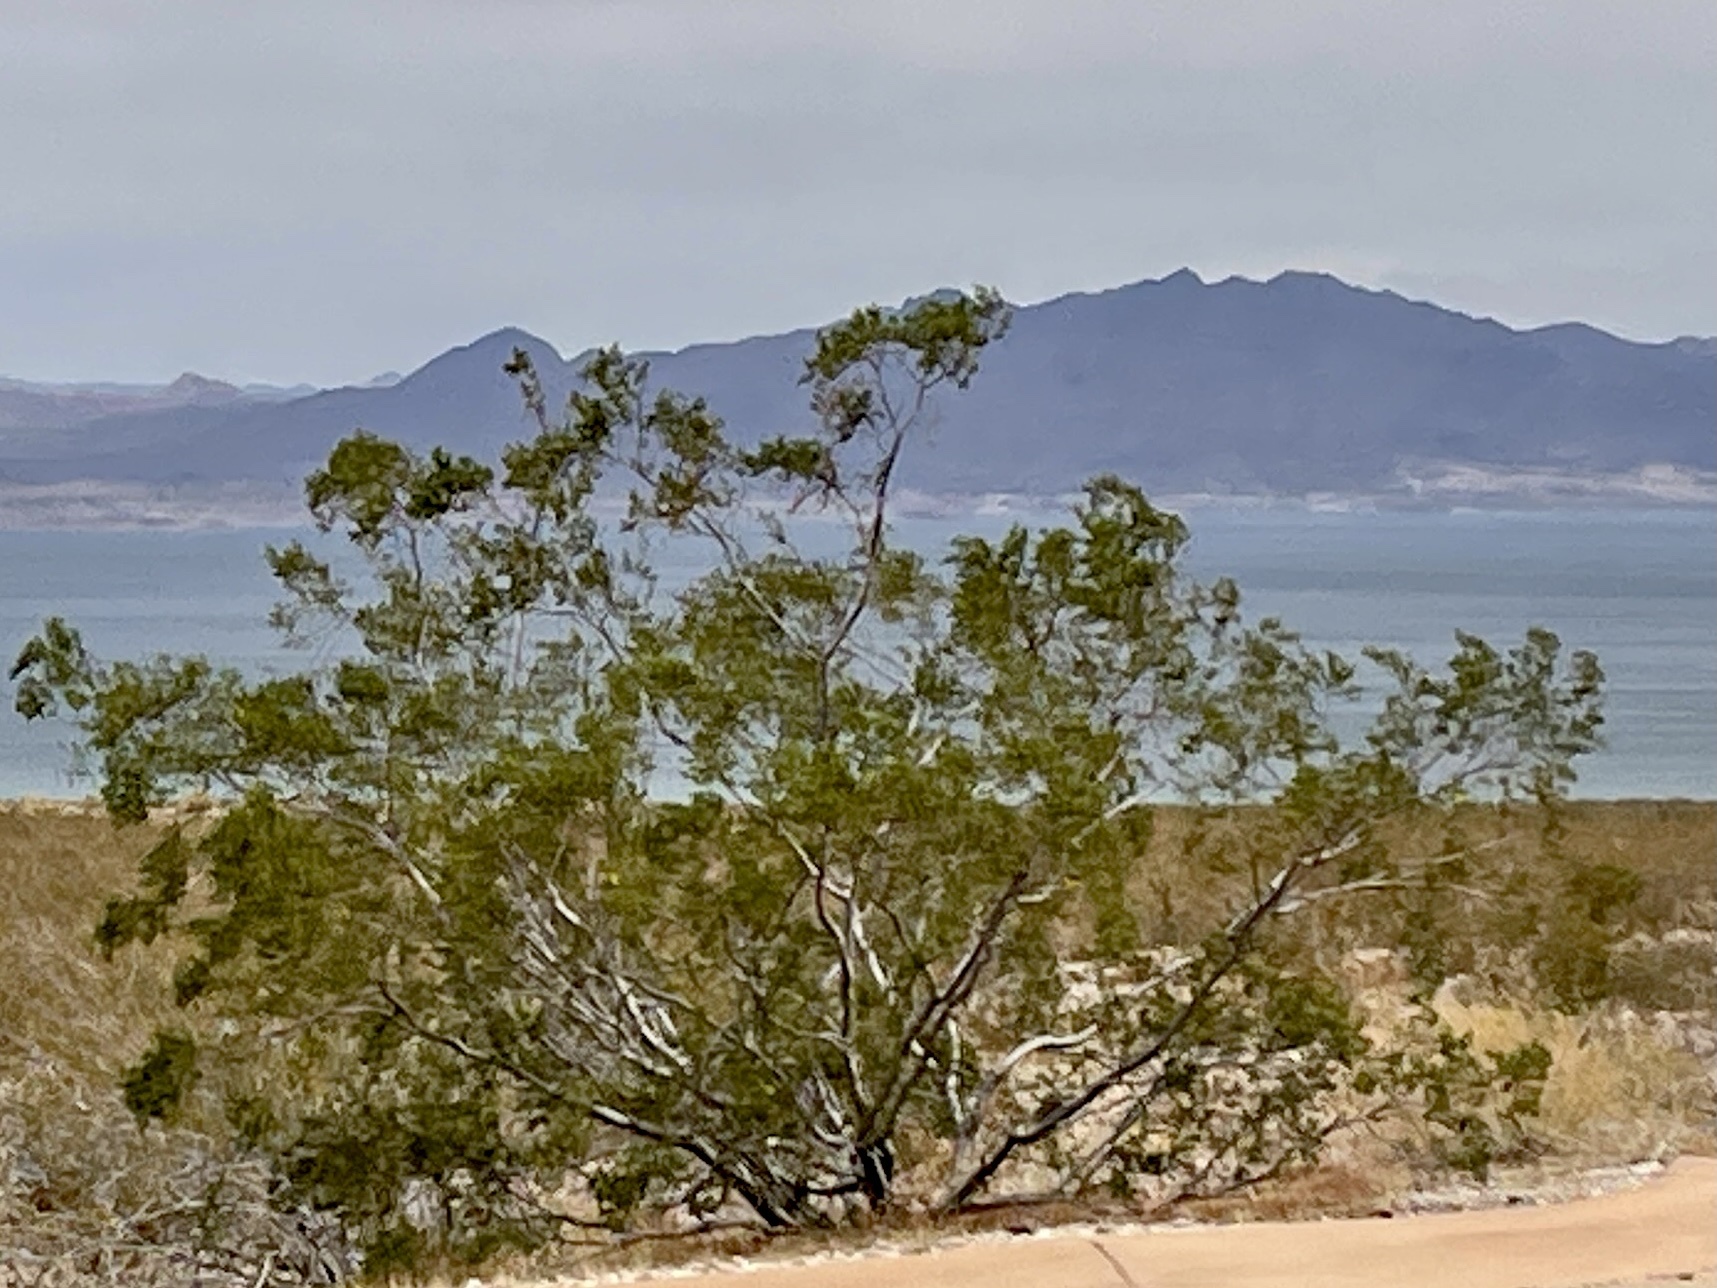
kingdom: Plantae
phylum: Tracheophyta
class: Magnoliopsida
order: Zygophyllales
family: Zygophyllaceae
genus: Larrea
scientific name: Larrea tridentata
